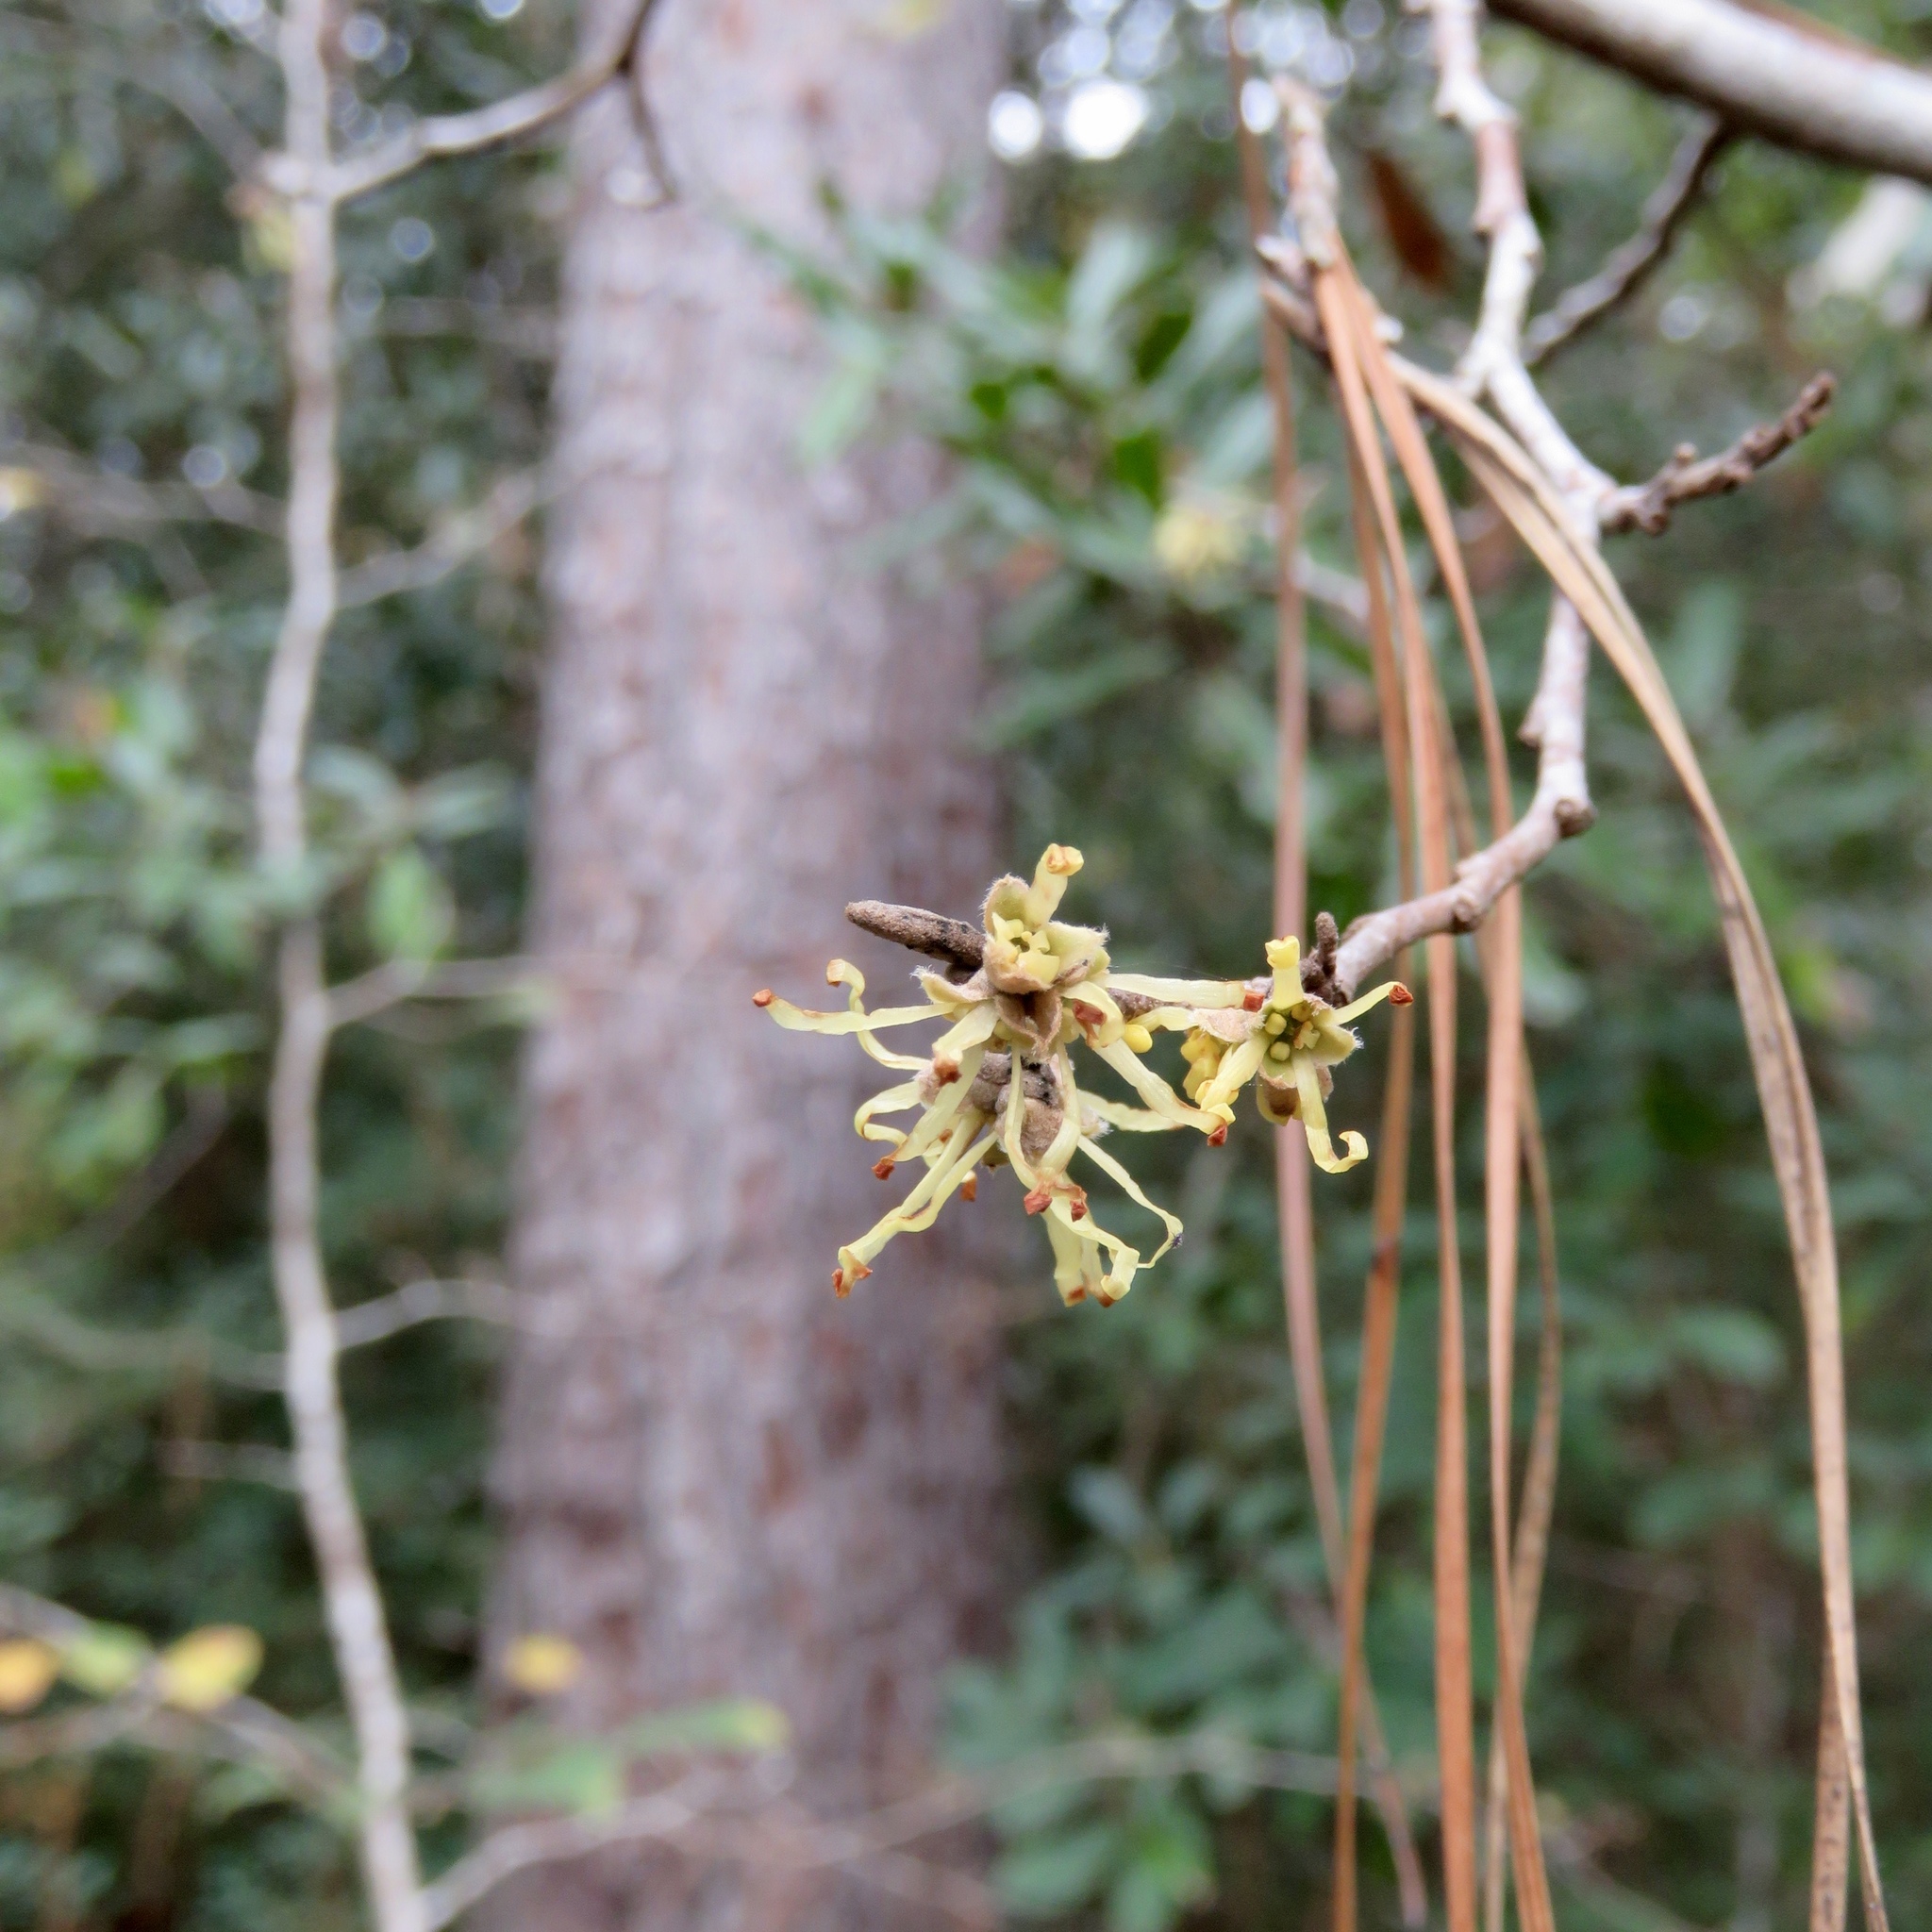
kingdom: Plantae
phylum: Tracheophyta
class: Magnoliopsida
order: Saxifragales
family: Hamamelidaceae
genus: Hamamelis
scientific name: Hamamelis virginiana
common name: Witch-hazel
